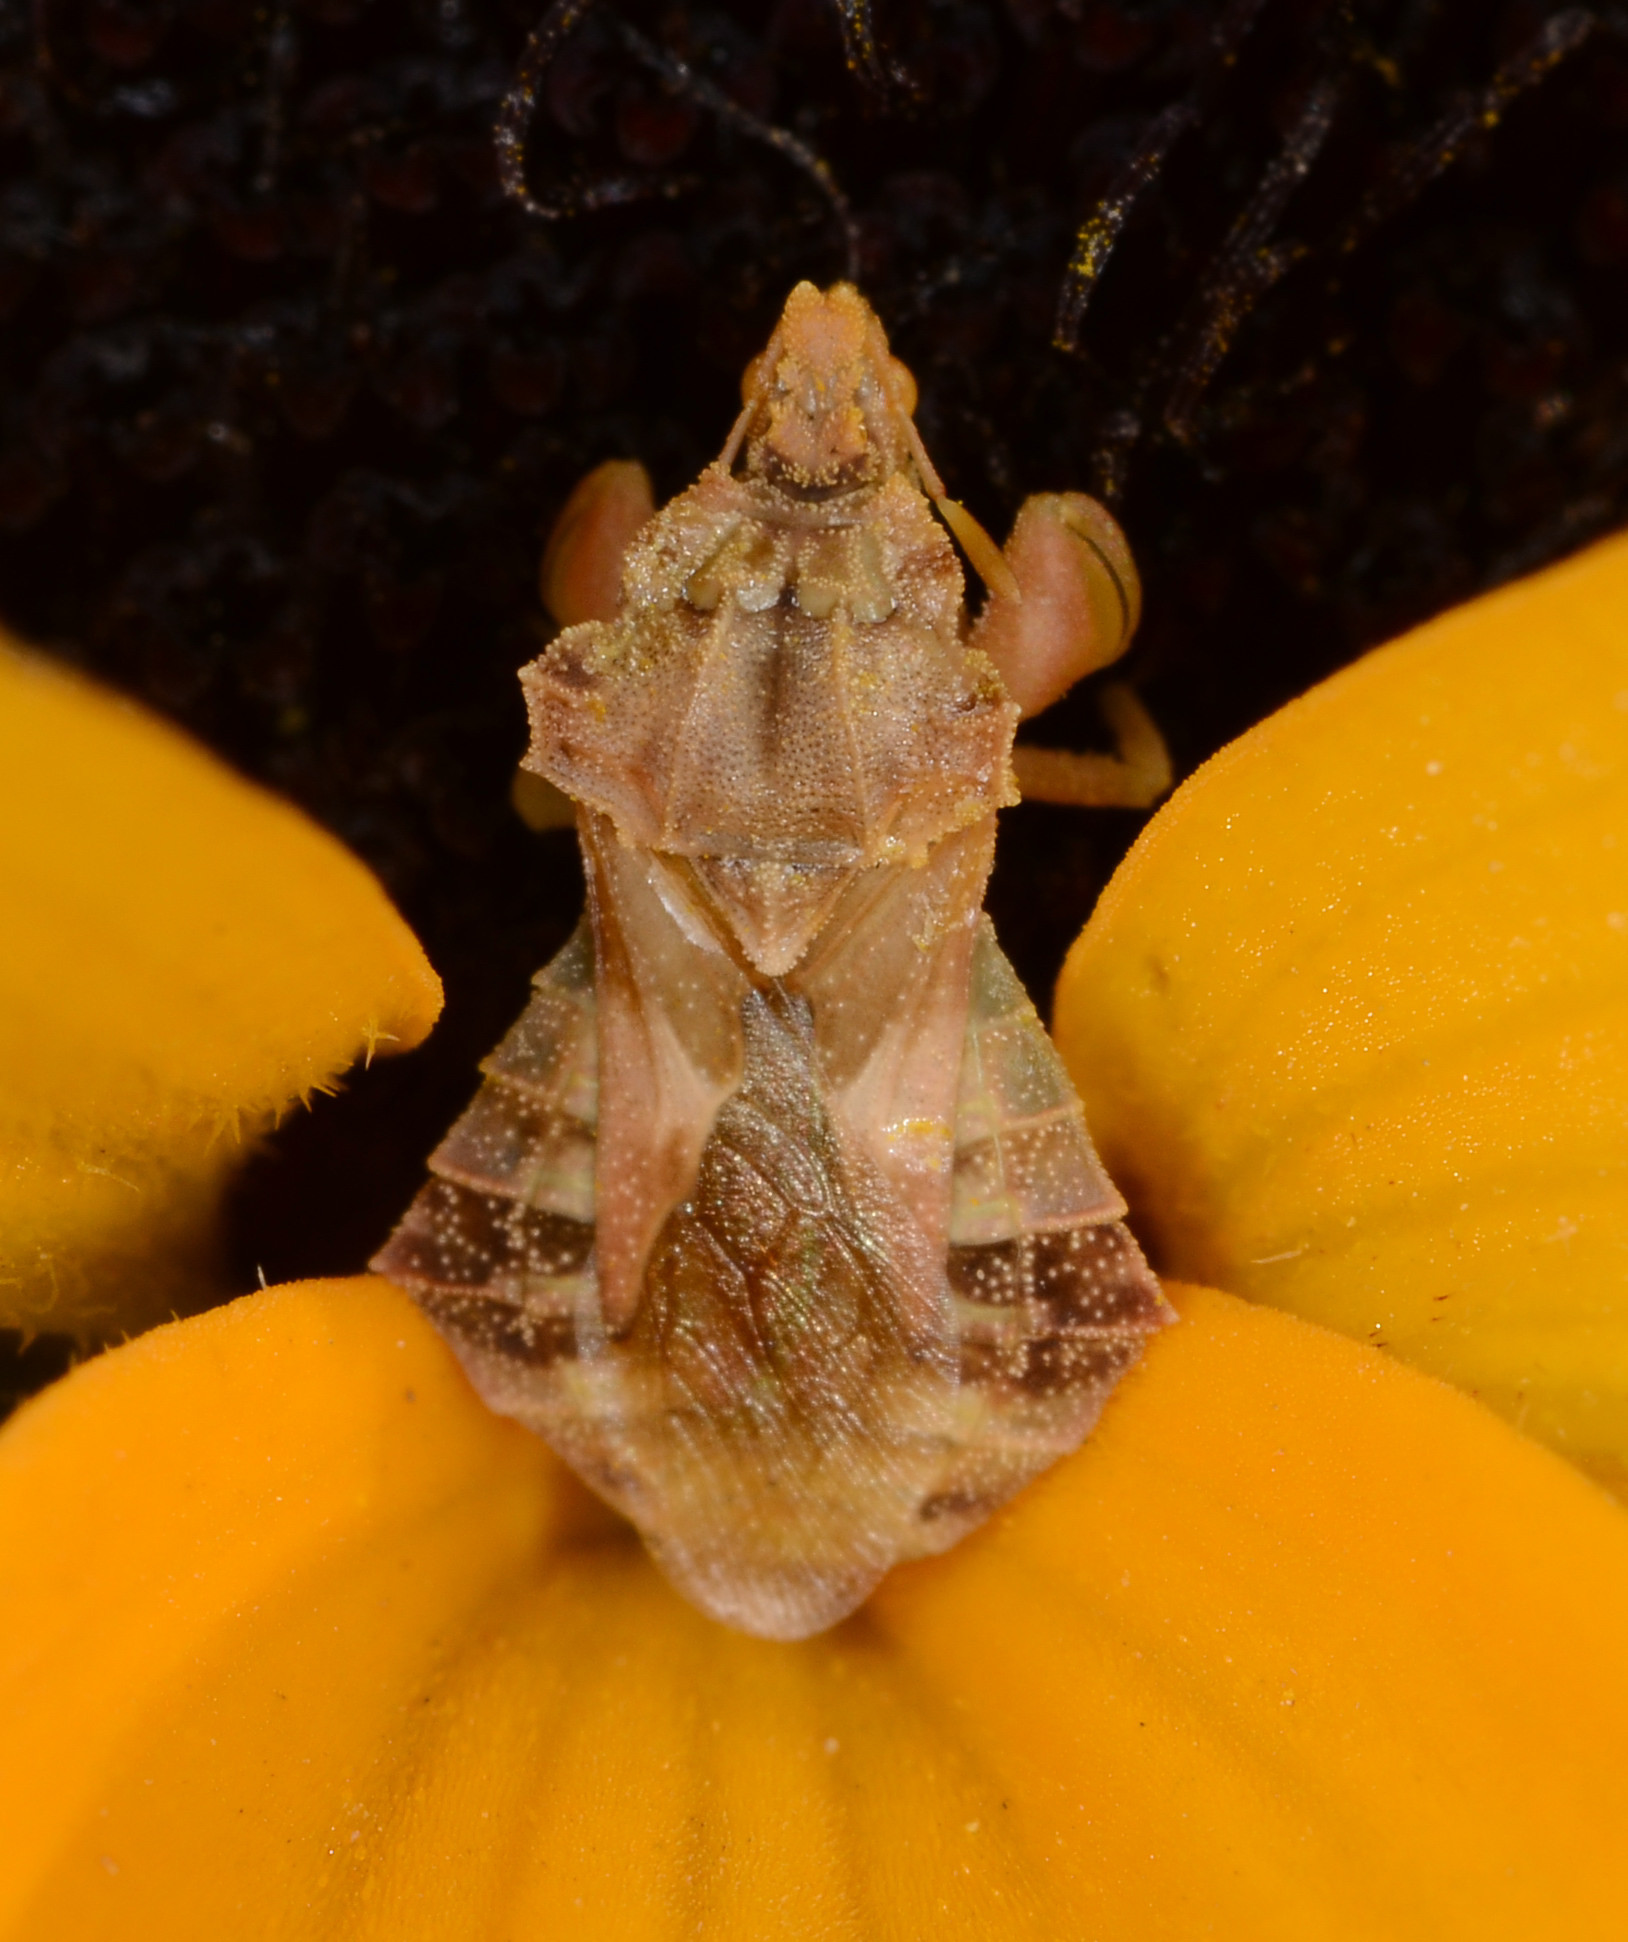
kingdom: Animalia
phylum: Arthropoda
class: Insecta
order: Hemiptera
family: Reduviidae
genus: Phymata
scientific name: Phymata pacifica
